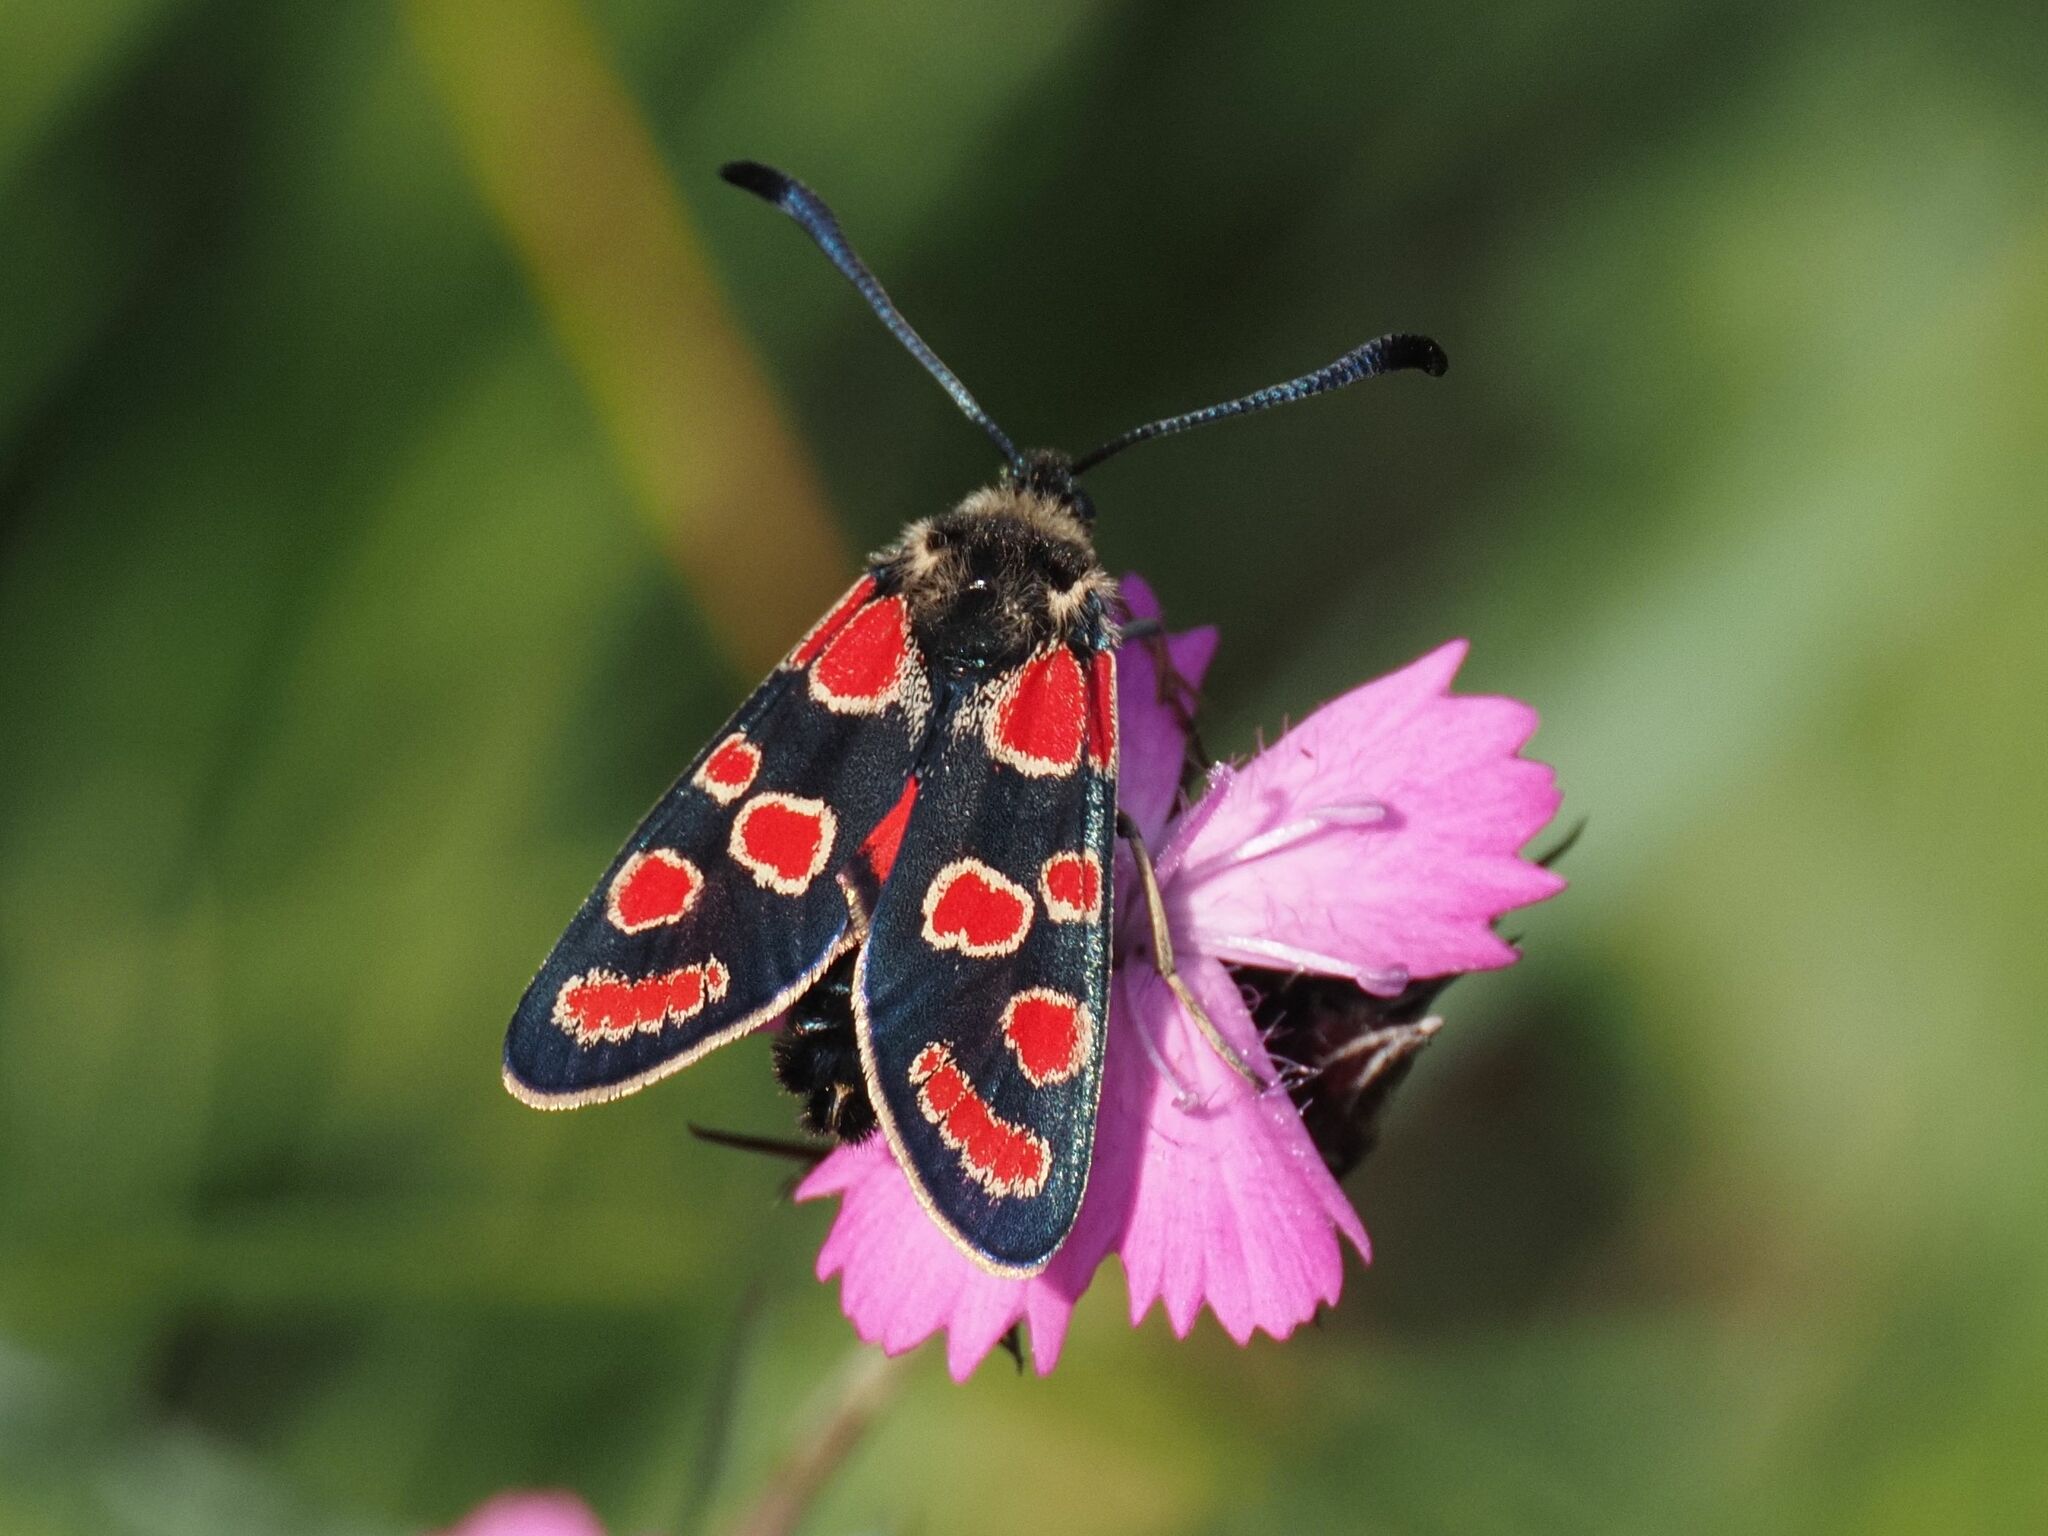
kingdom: Animalia
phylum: Arthropoda
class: Insecta
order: Lepidoptera
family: Zygaenidae
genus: Zygaena
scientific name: Zygaena carniolica
